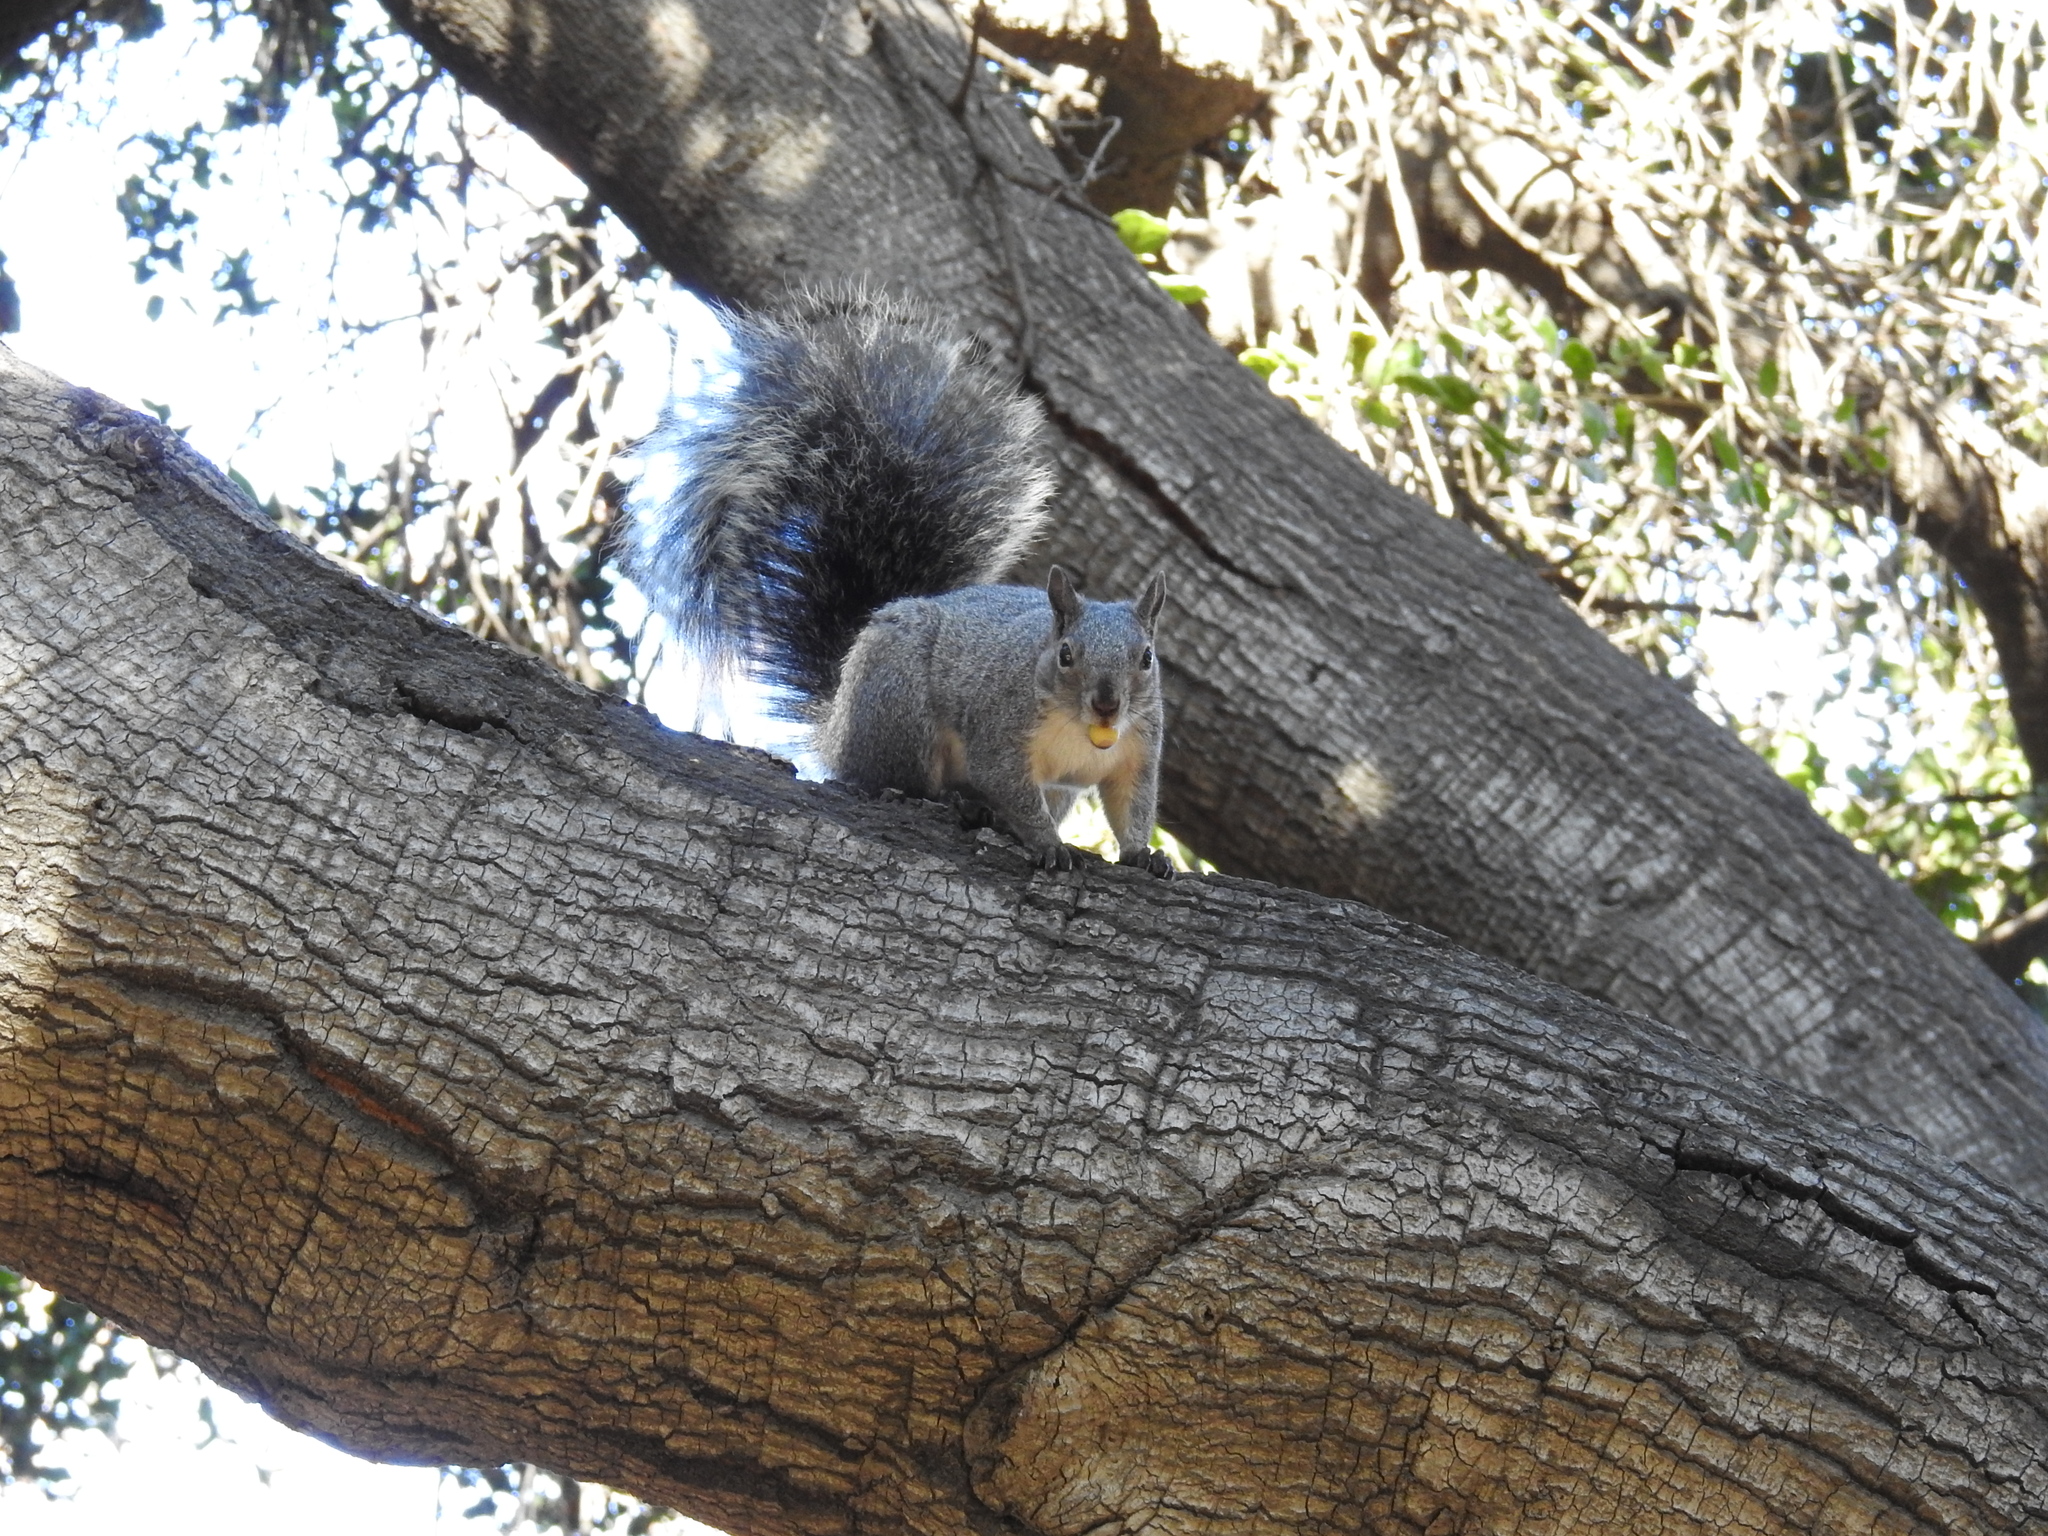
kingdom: Animalia
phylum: Chordata
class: Mammalia
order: Rodentia
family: Sciuridae
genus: Sciurus
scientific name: Sciurus griseus
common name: Western gray squirrel
